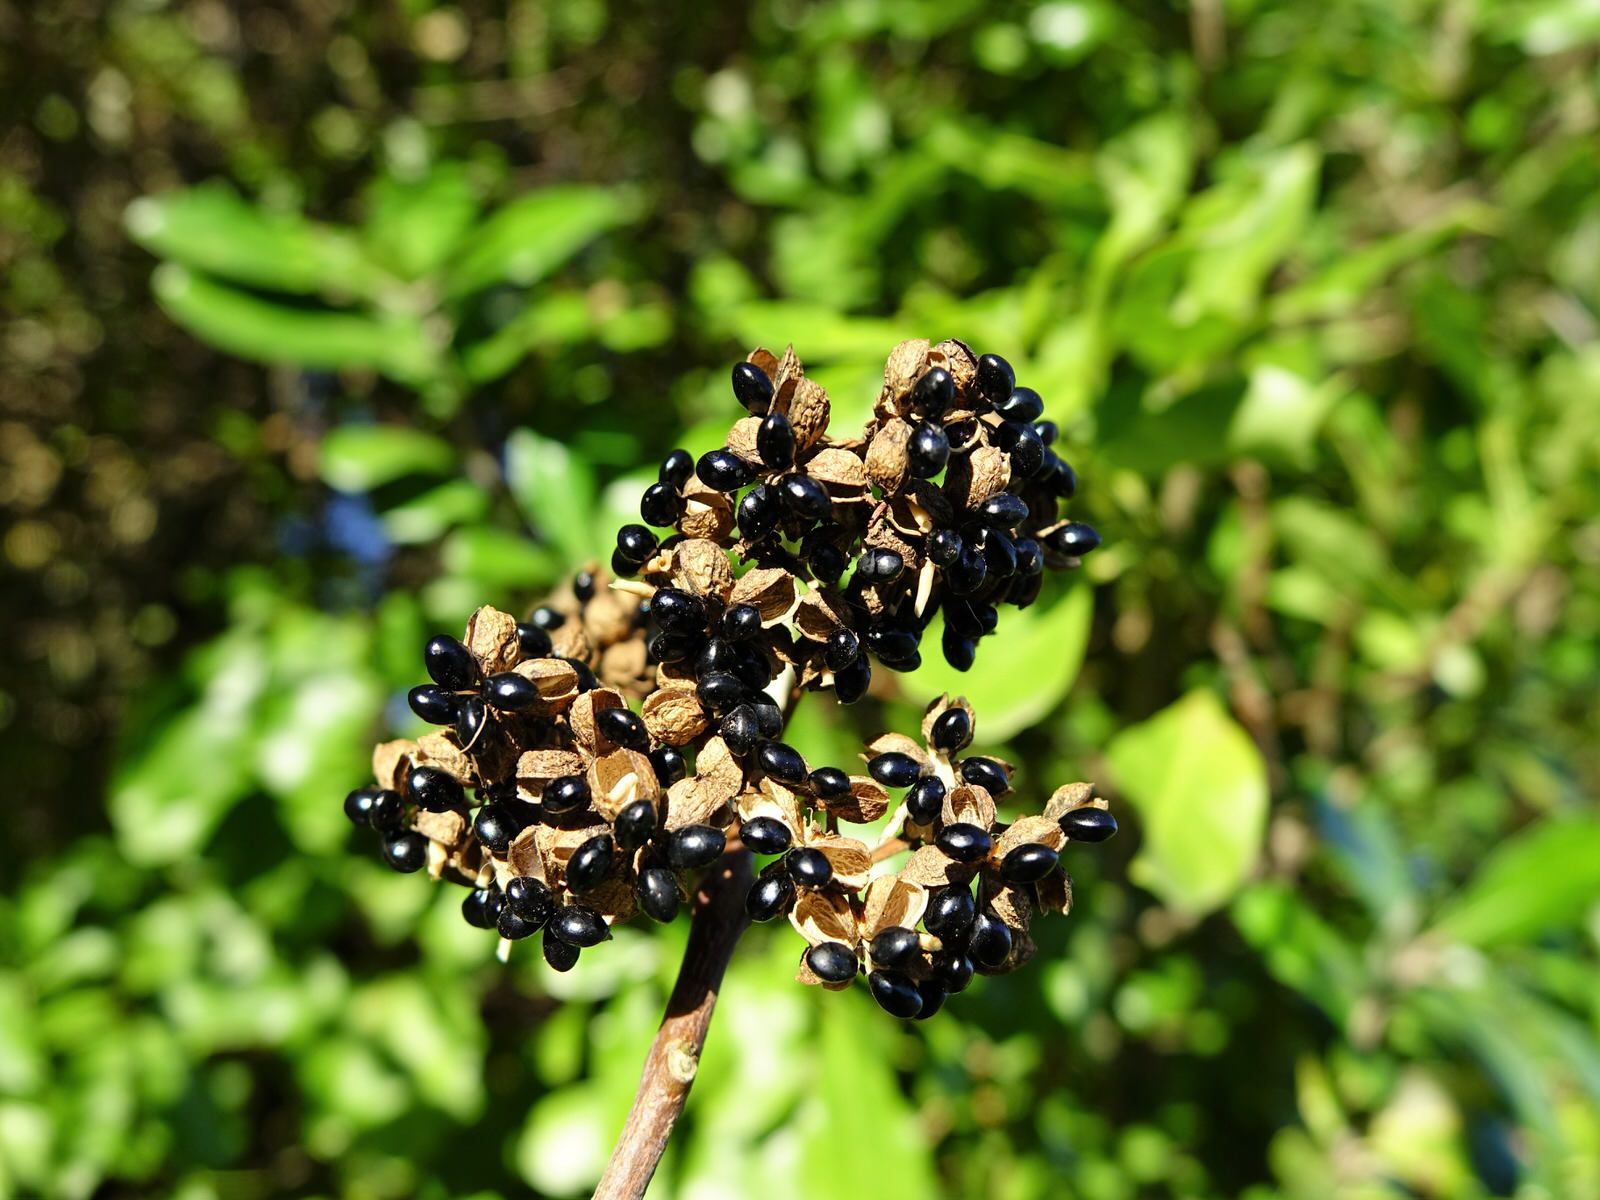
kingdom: Plantae
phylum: Tracheophyta
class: Magnoliopsida
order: Sapindales
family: Rutaceae
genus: Melicope
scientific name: Melicope ternata
